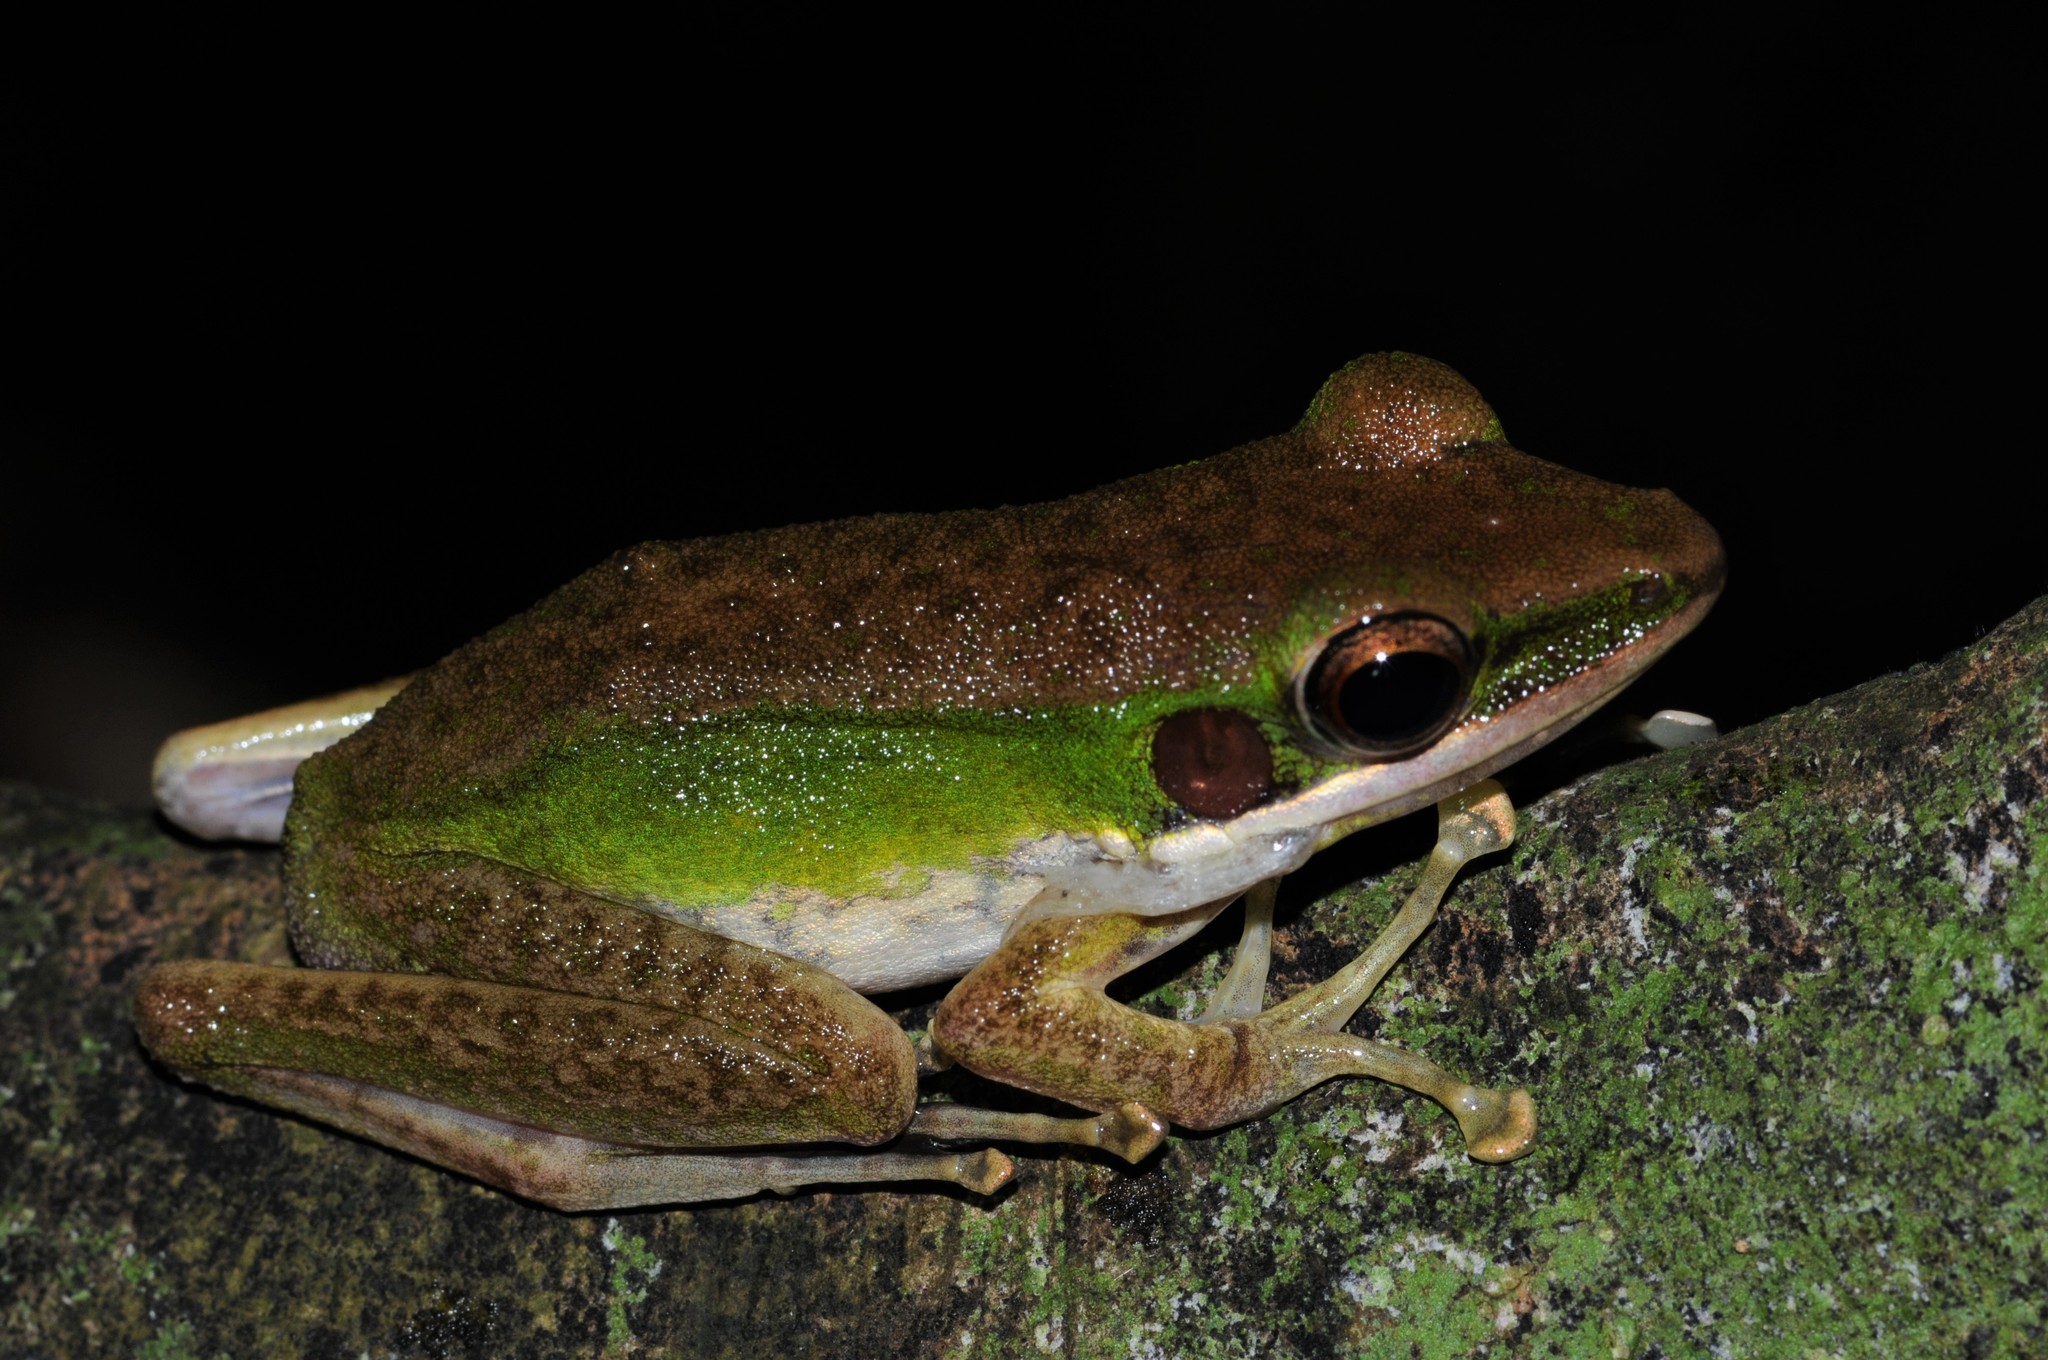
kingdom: Animalia
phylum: Chordata
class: Amphibia
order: Anura
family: Ranidae
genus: Chalcorana
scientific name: Chalcorana labialis
